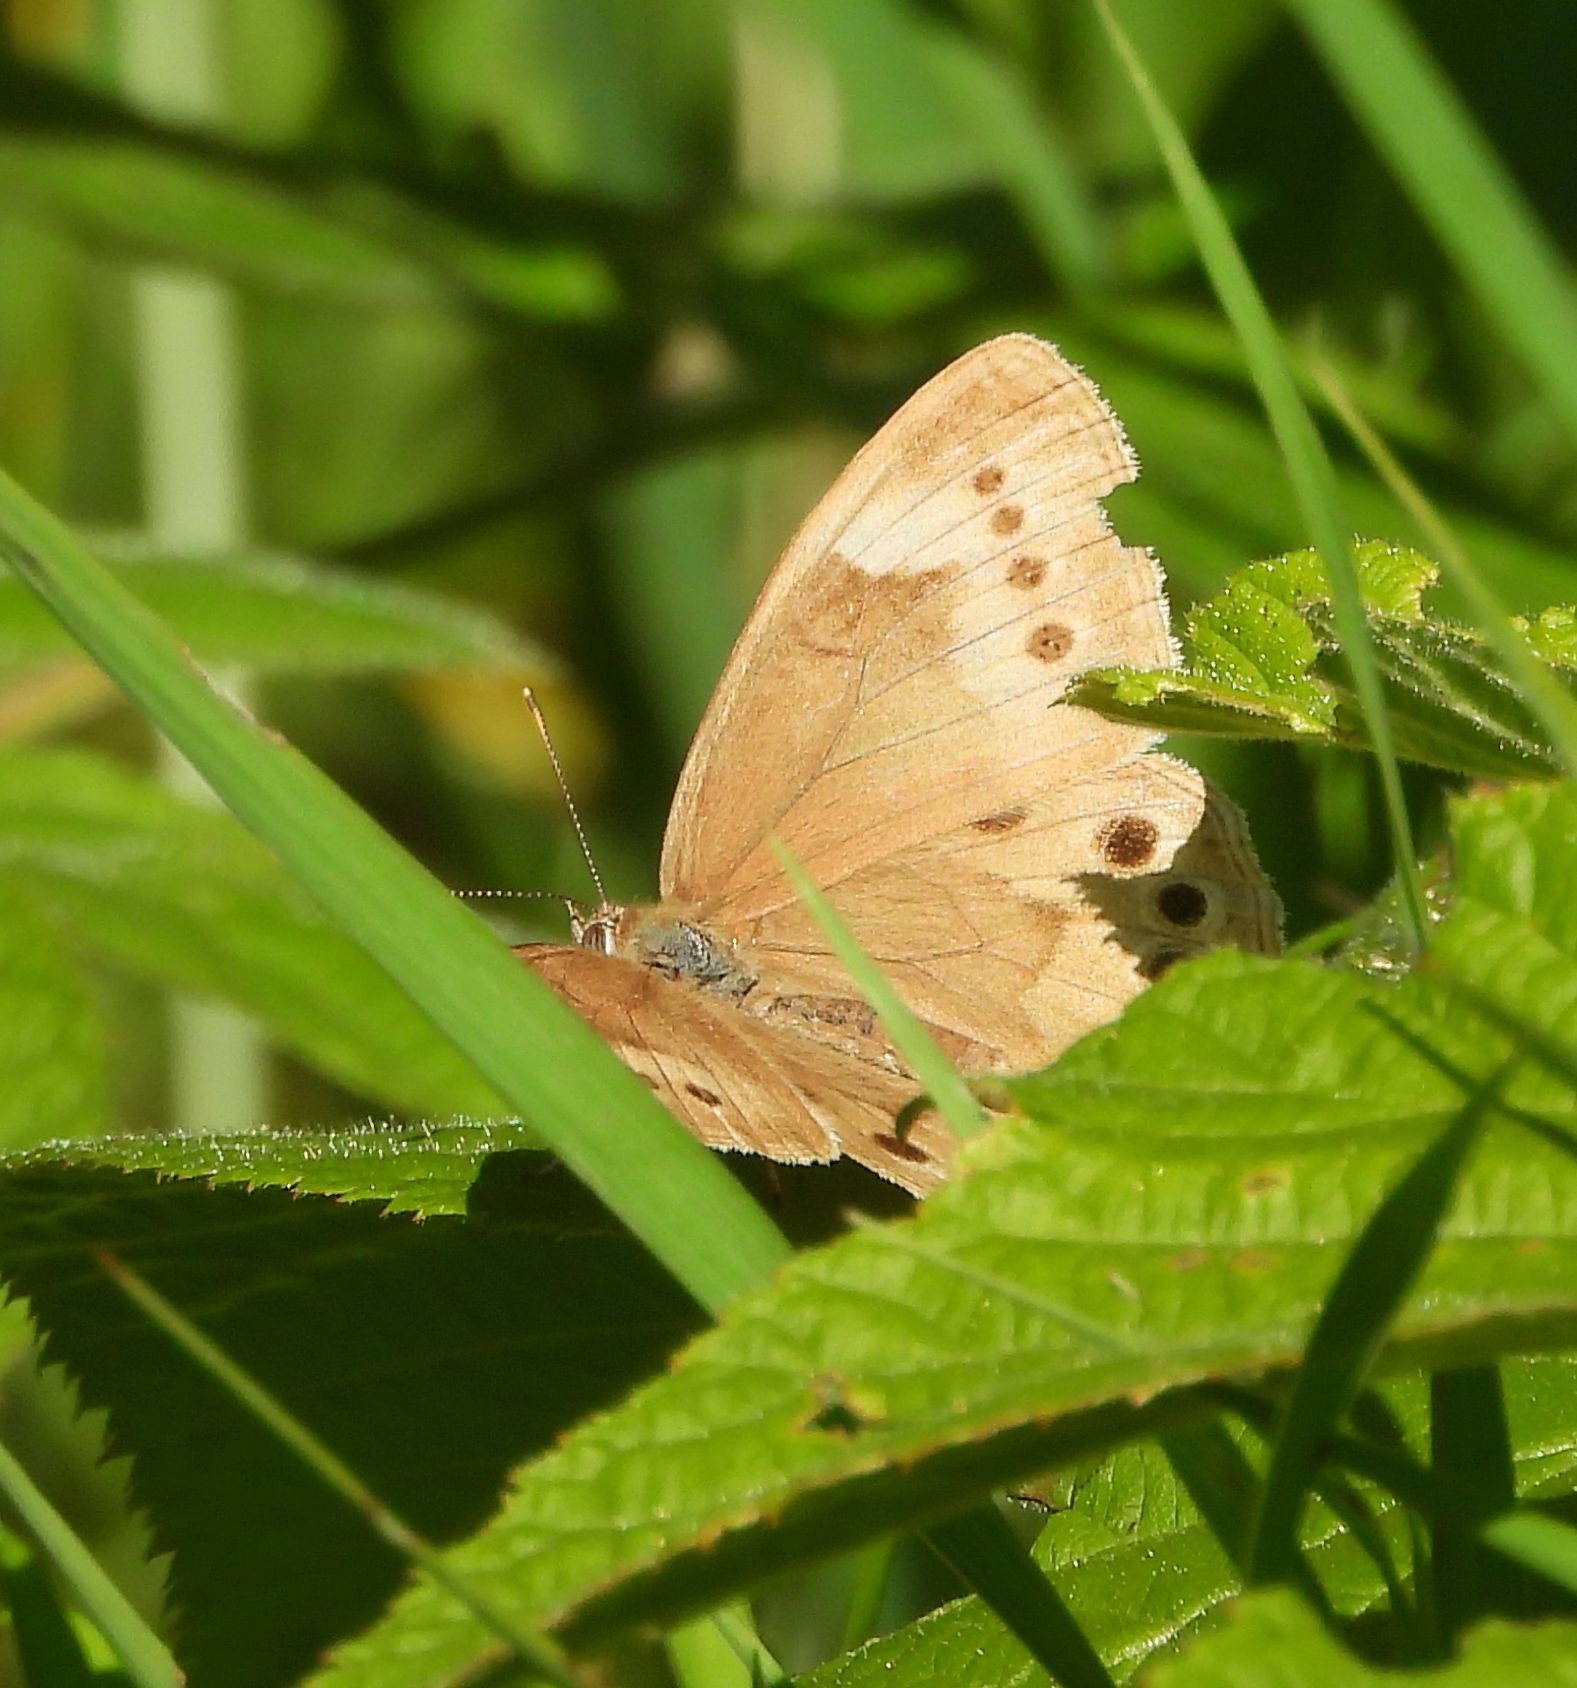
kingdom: Animalia
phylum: Arthropoda
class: Insecta
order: Lepidoptera
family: Nymphalidae
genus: Lethe
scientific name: Lethe eurydice
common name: Eyed brown
